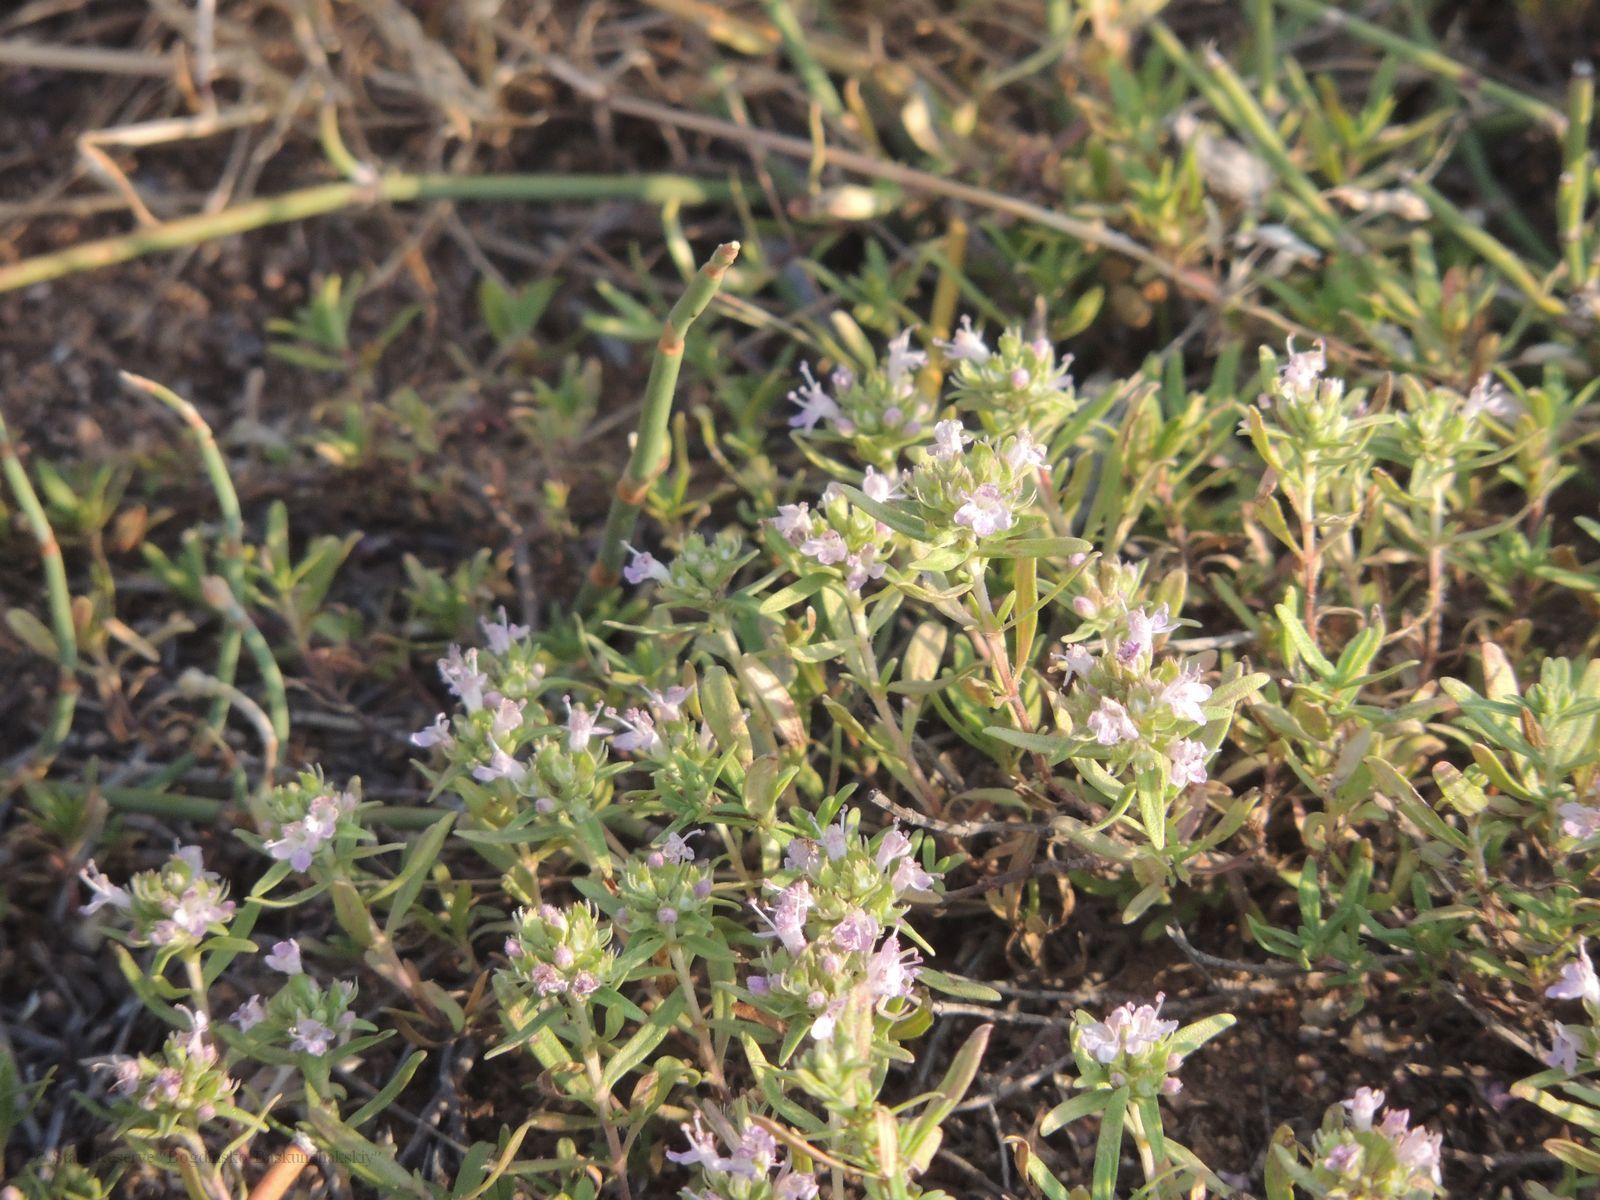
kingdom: Plantae
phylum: Tracheophyta
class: Magnoliopsida
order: Lamiales
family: Lamiaceae
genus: Thymus
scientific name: Thymus kirgisorum
